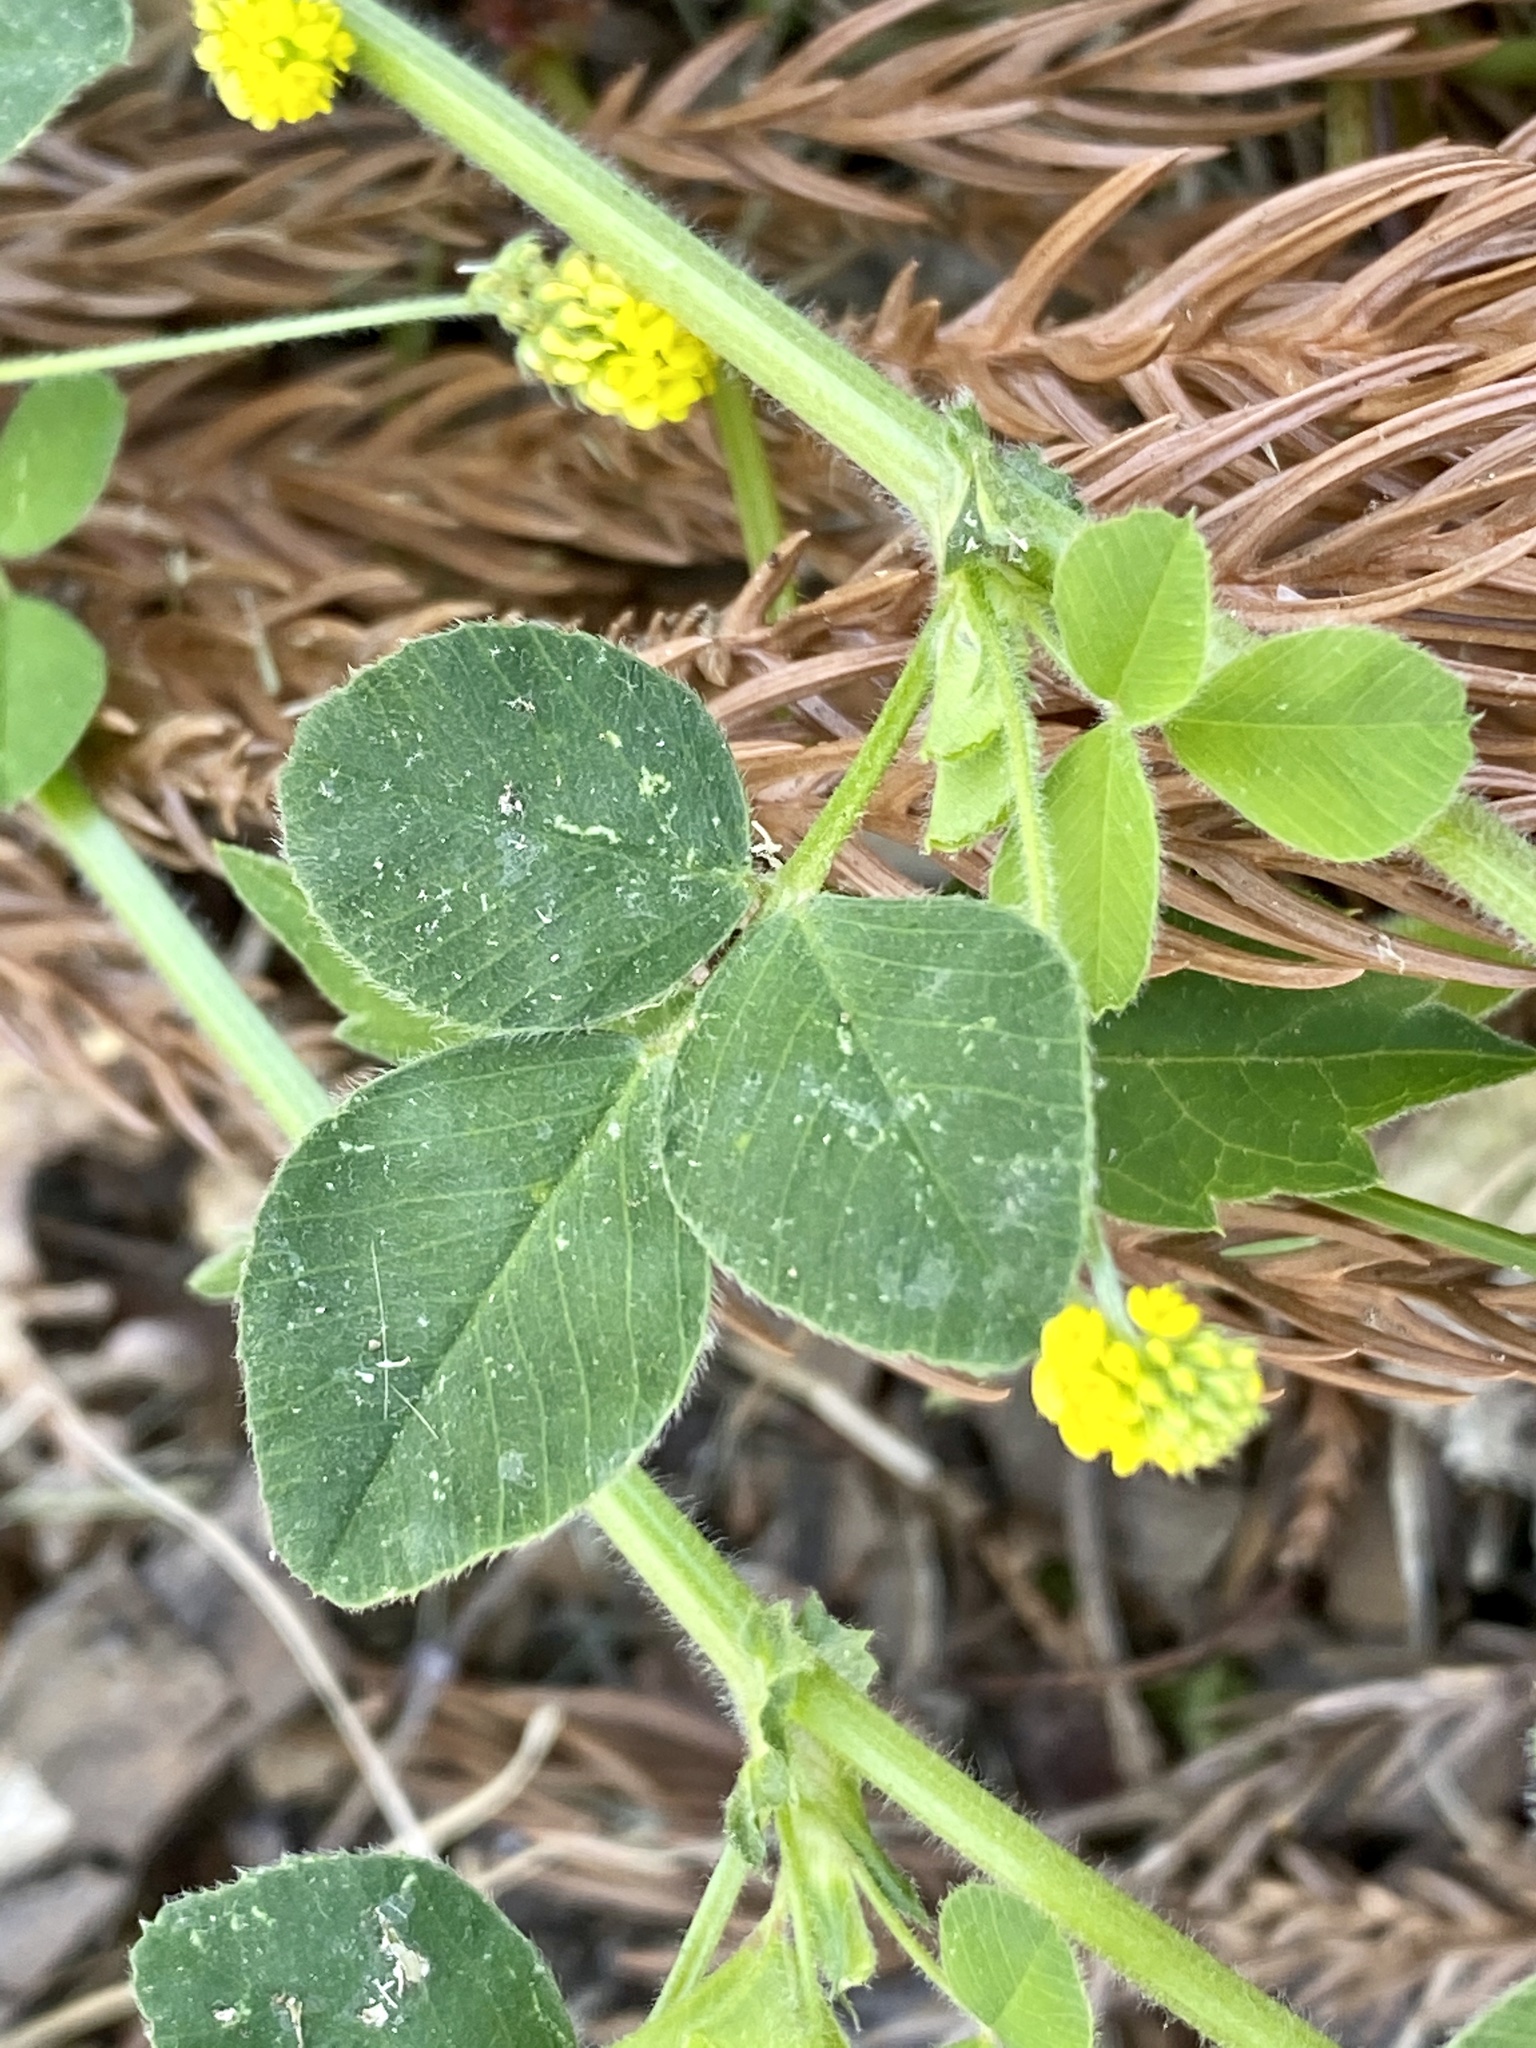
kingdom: Plantae
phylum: Tracheophyta
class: Magnoliopsida
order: Fabales
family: Fabaceae
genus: Medicago
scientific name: Medicago lupulina
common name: Black medick
